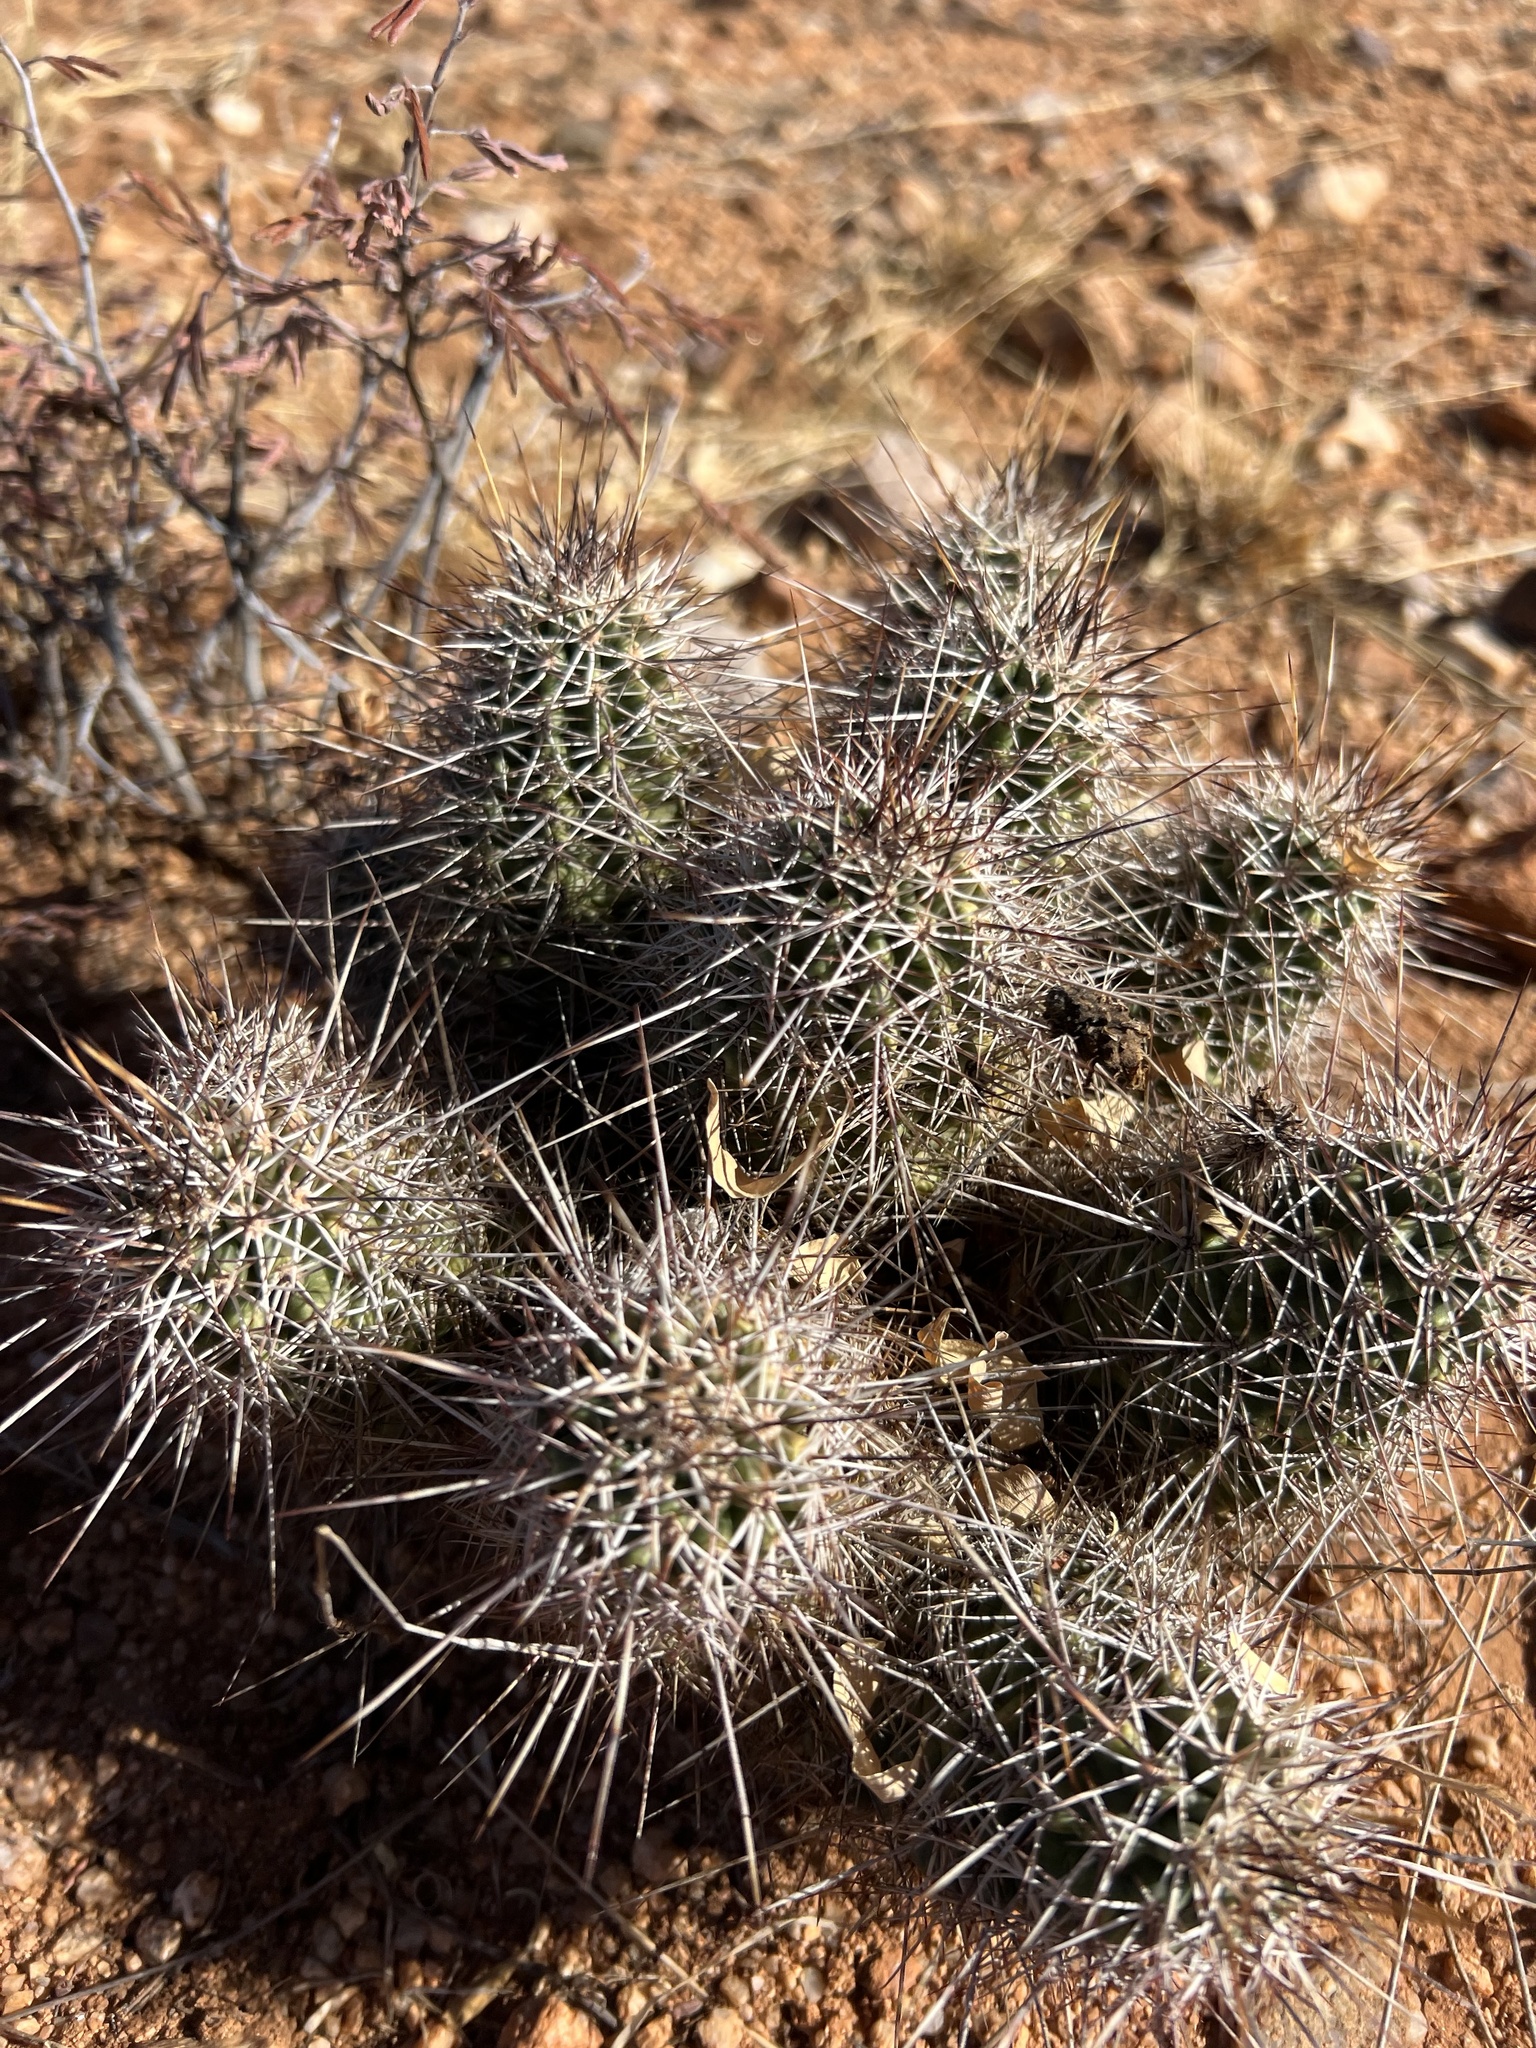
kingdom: Plantae
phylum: Tracheophyta
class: Magnoliopsida
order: Caryophyllales
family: Cactaceae
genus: Echinocereus
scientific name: Echinocereus fasciculatus
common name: Bundle hedgehog
